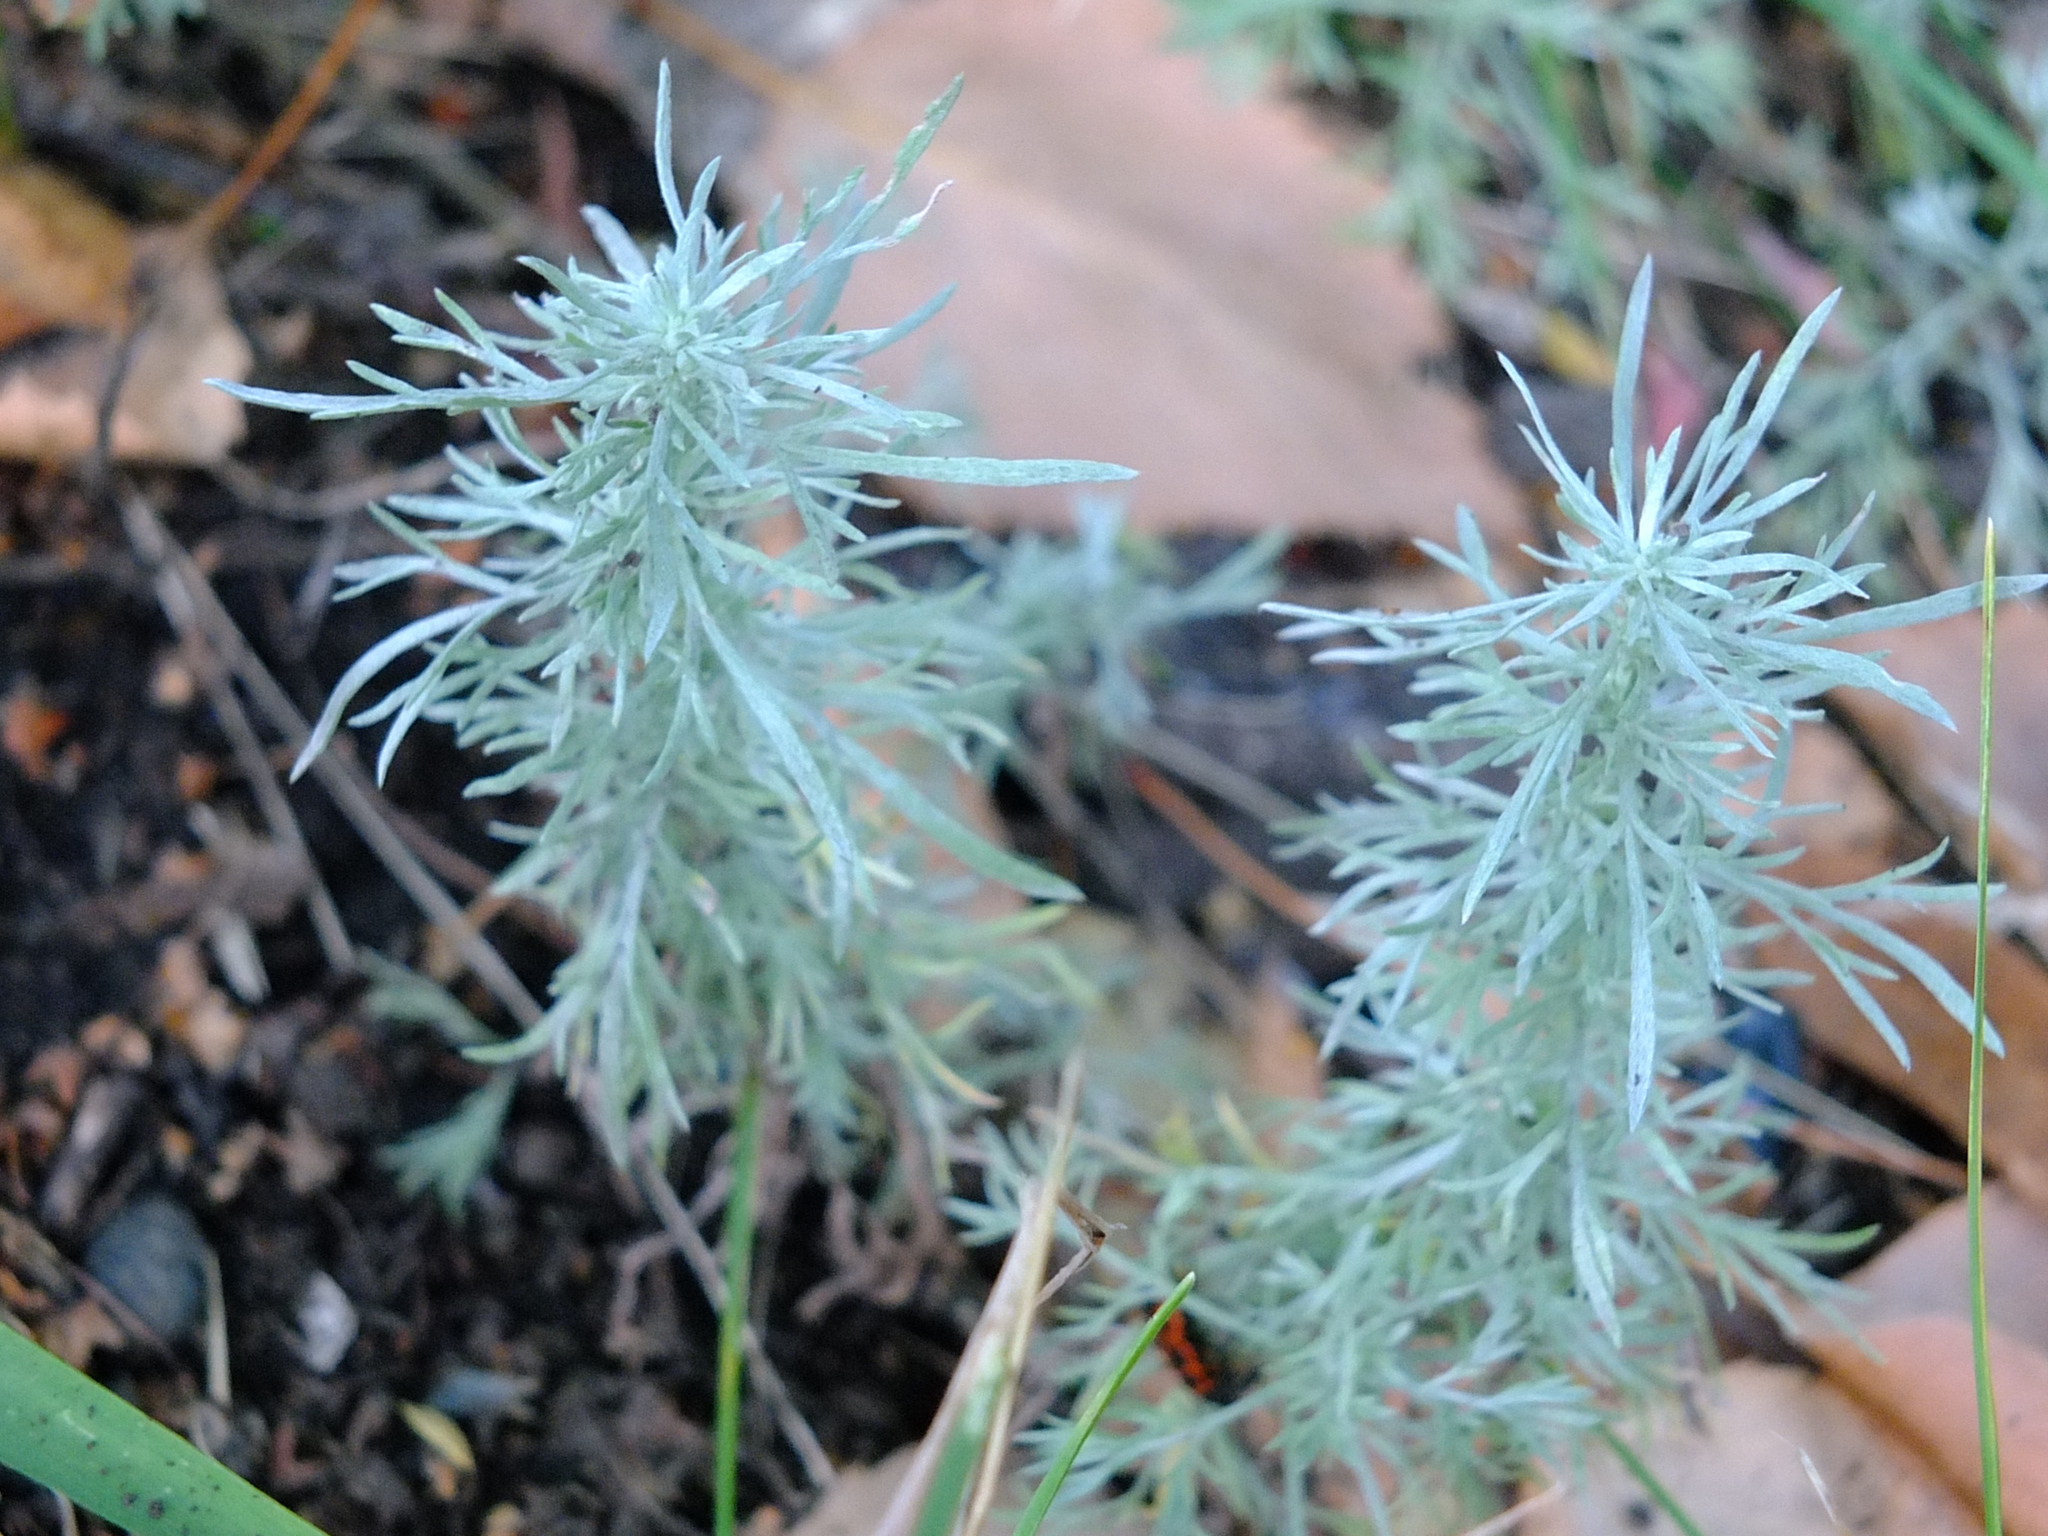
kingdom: Plantae
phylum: Tracheophyta
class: Magnoliopsida
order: Asterales
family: Asteraceae
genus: Artemisia
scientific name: Artemisia austriaca
